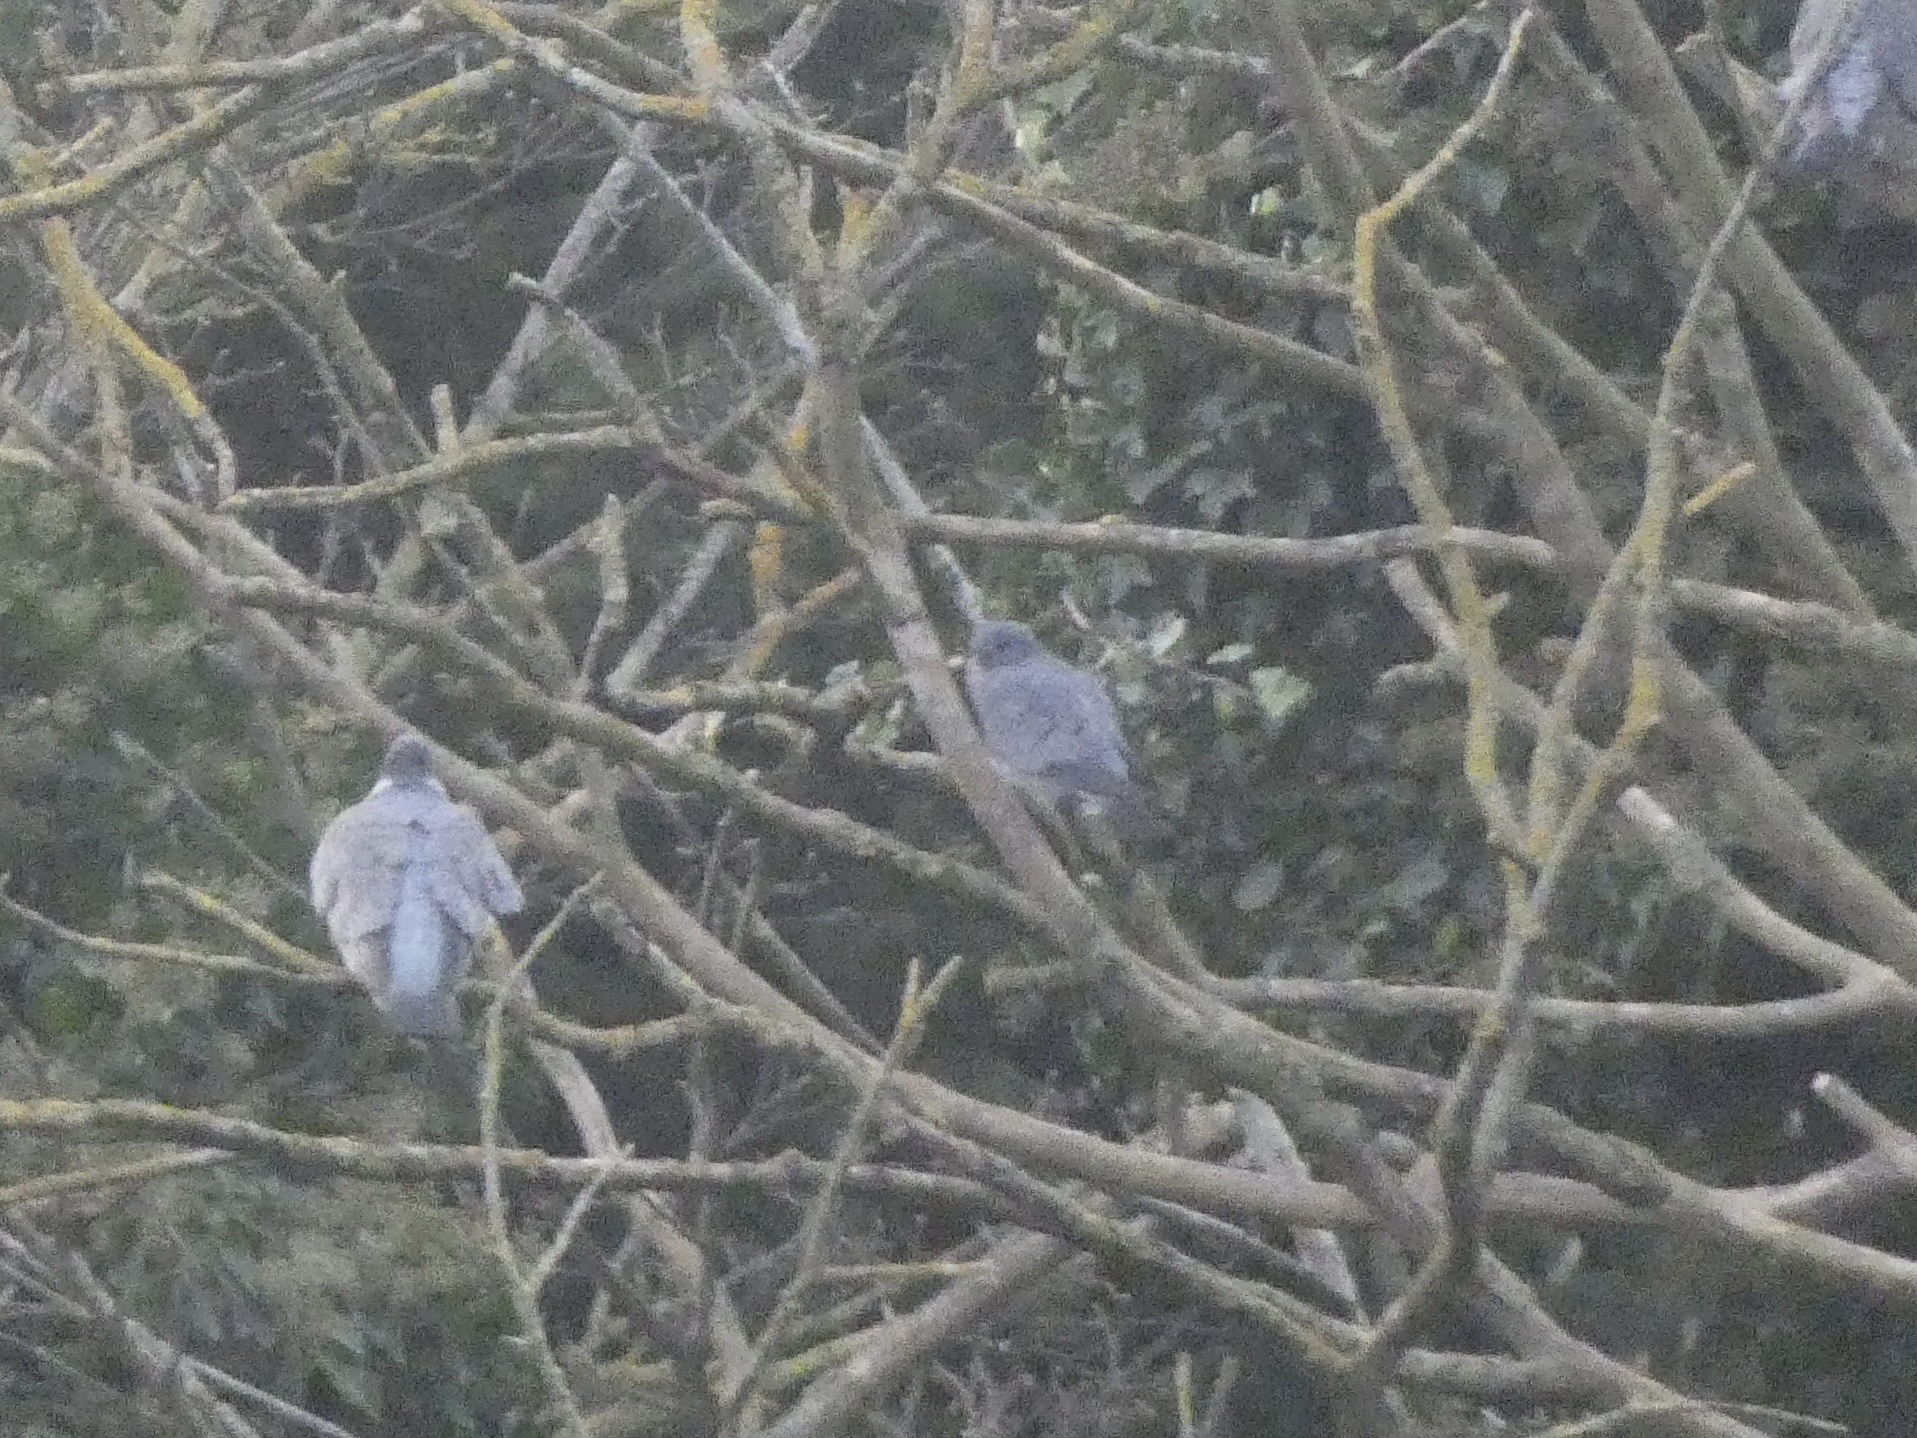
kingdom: Animalia
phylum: Chordata
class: Aves
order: Columbiformes
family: Columbidae
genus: Columba
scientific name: Columba oenas
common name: Stock dove
